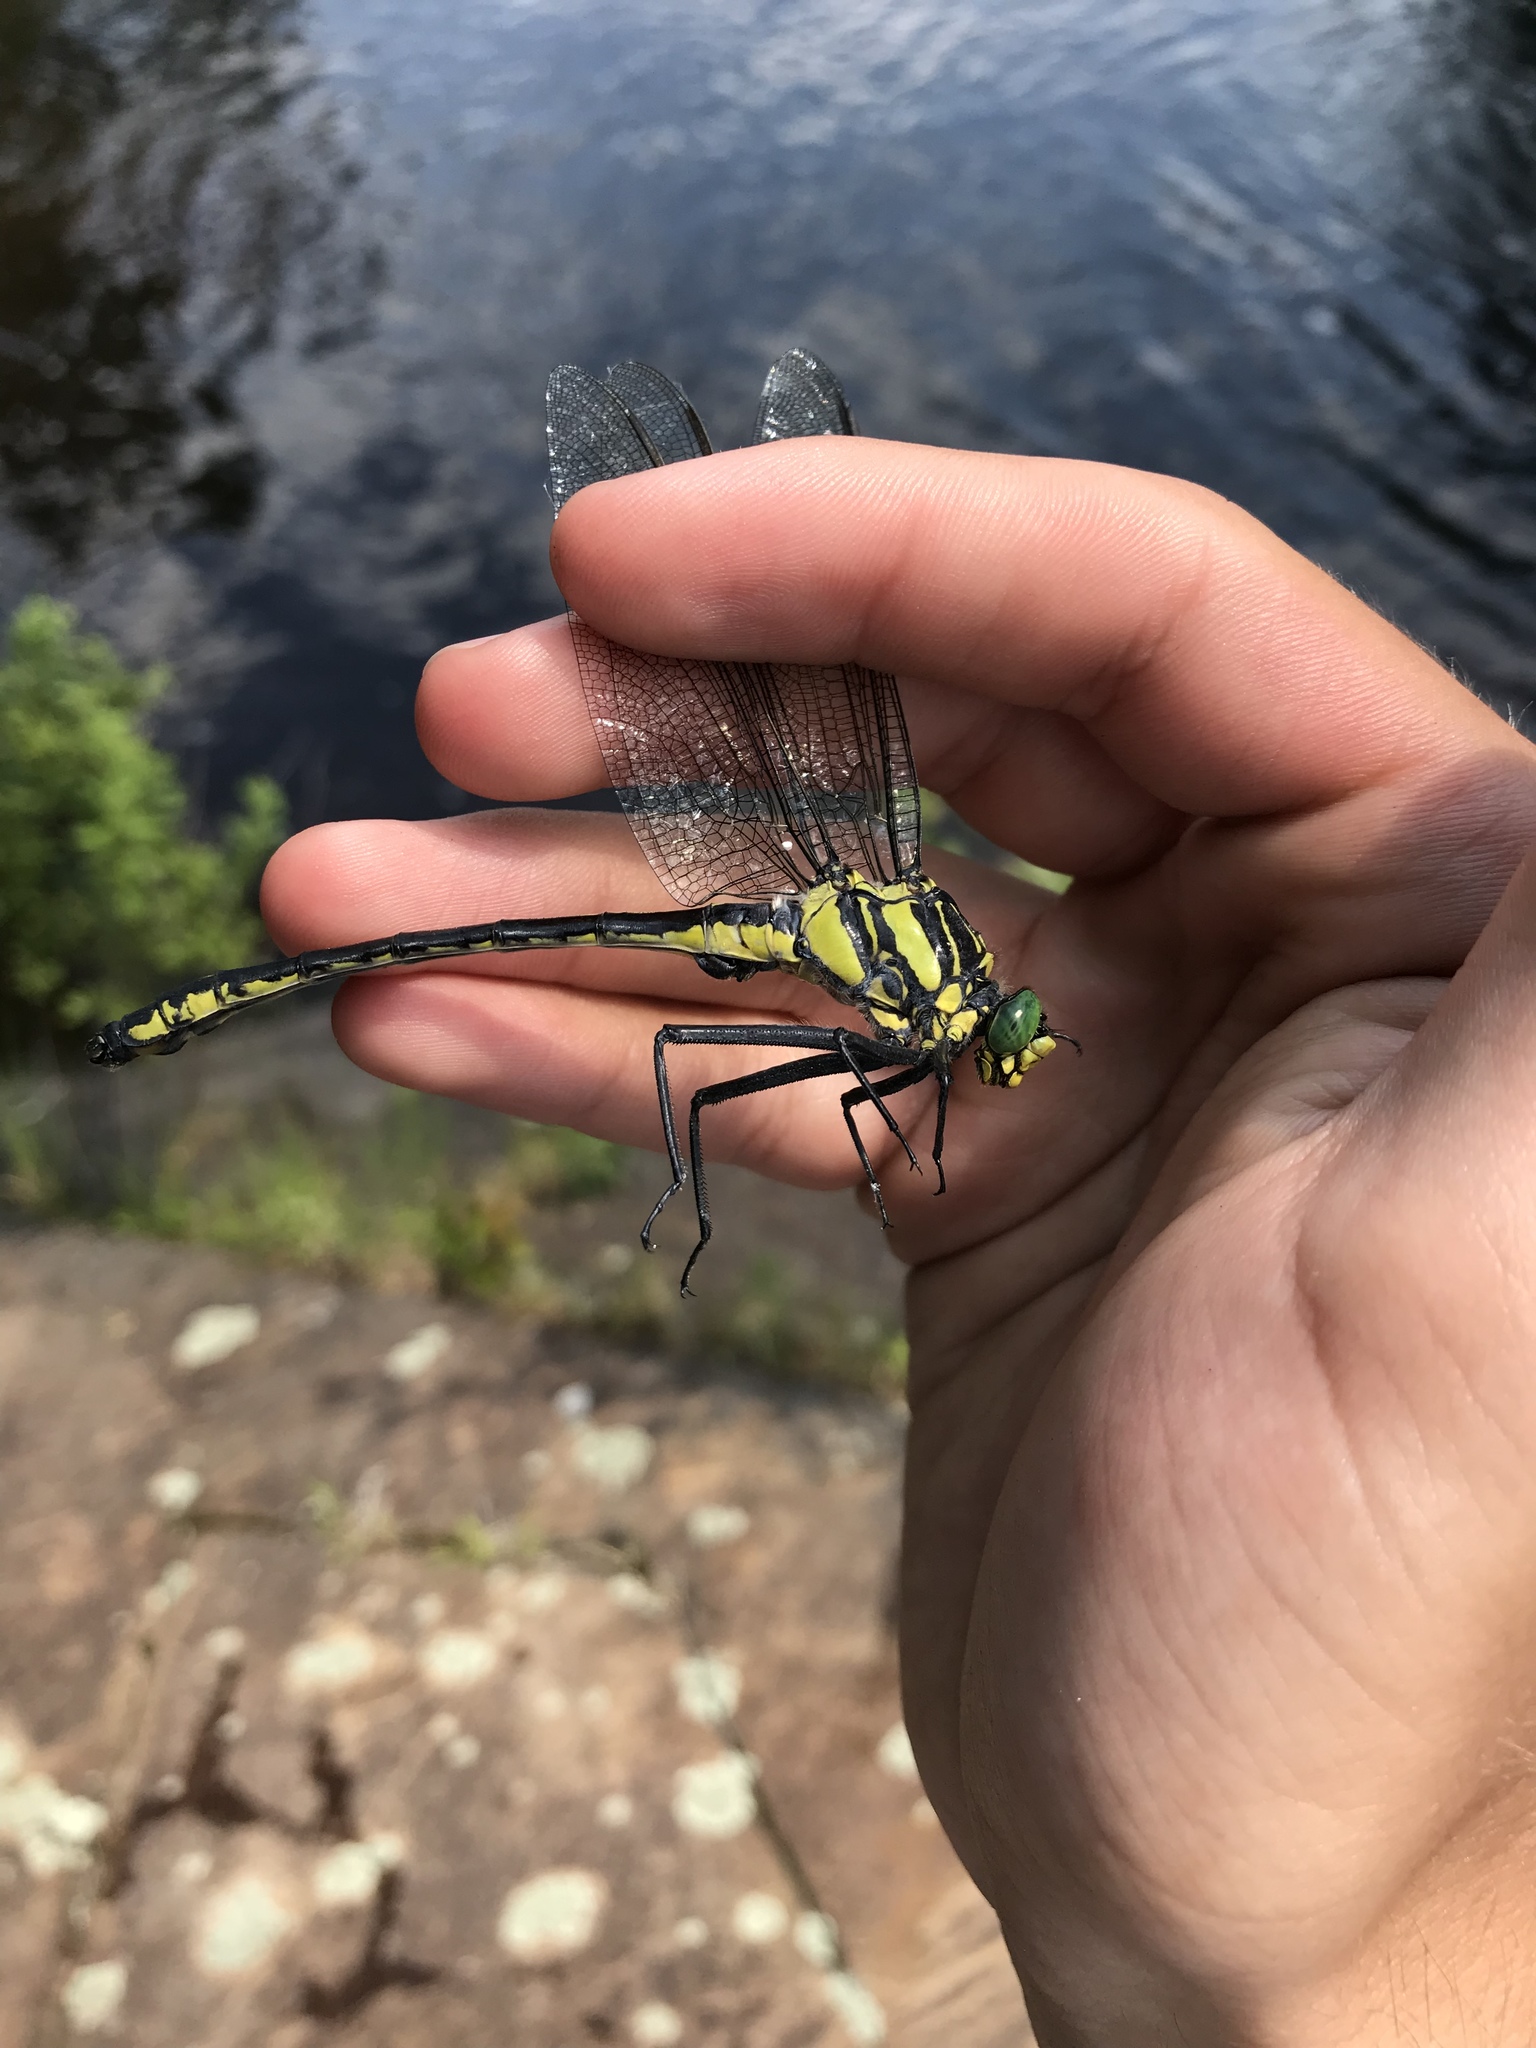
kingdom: Animalia
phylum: Arthropoda
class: Insecta
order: Odonata
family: Gomphidae
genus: Hagenius
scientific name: Hagenius brevistylus
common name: Dragonhunter
